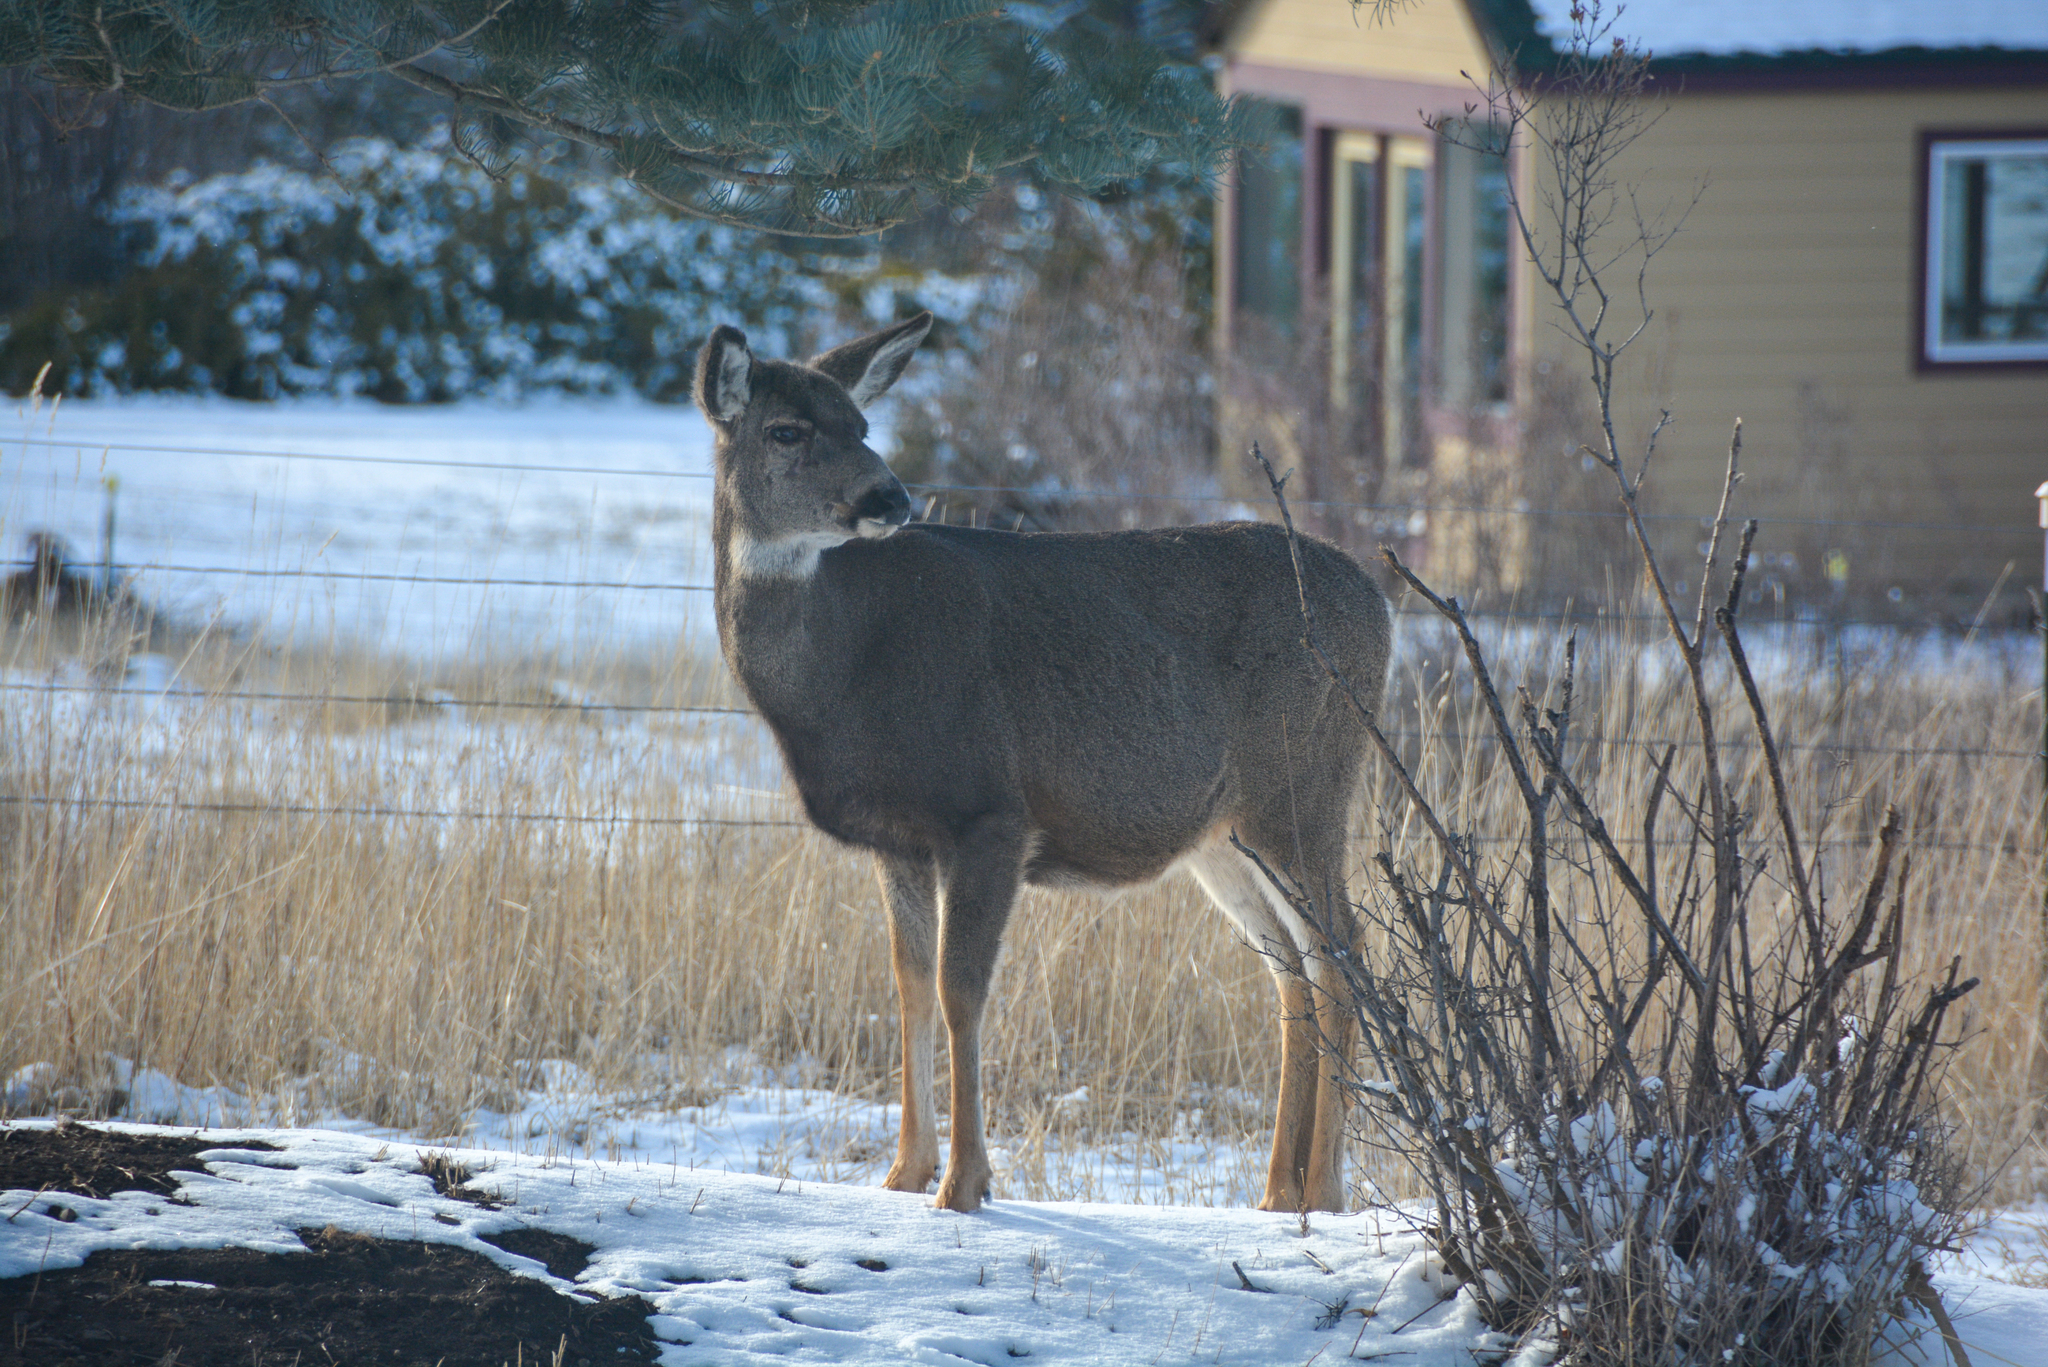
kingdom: Animalia
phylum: Chordata
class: Mammalia
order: Artiodactyla
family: Cervidae
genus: Odocoileus
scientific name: Odocoileus hemionus
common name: Mule deer
